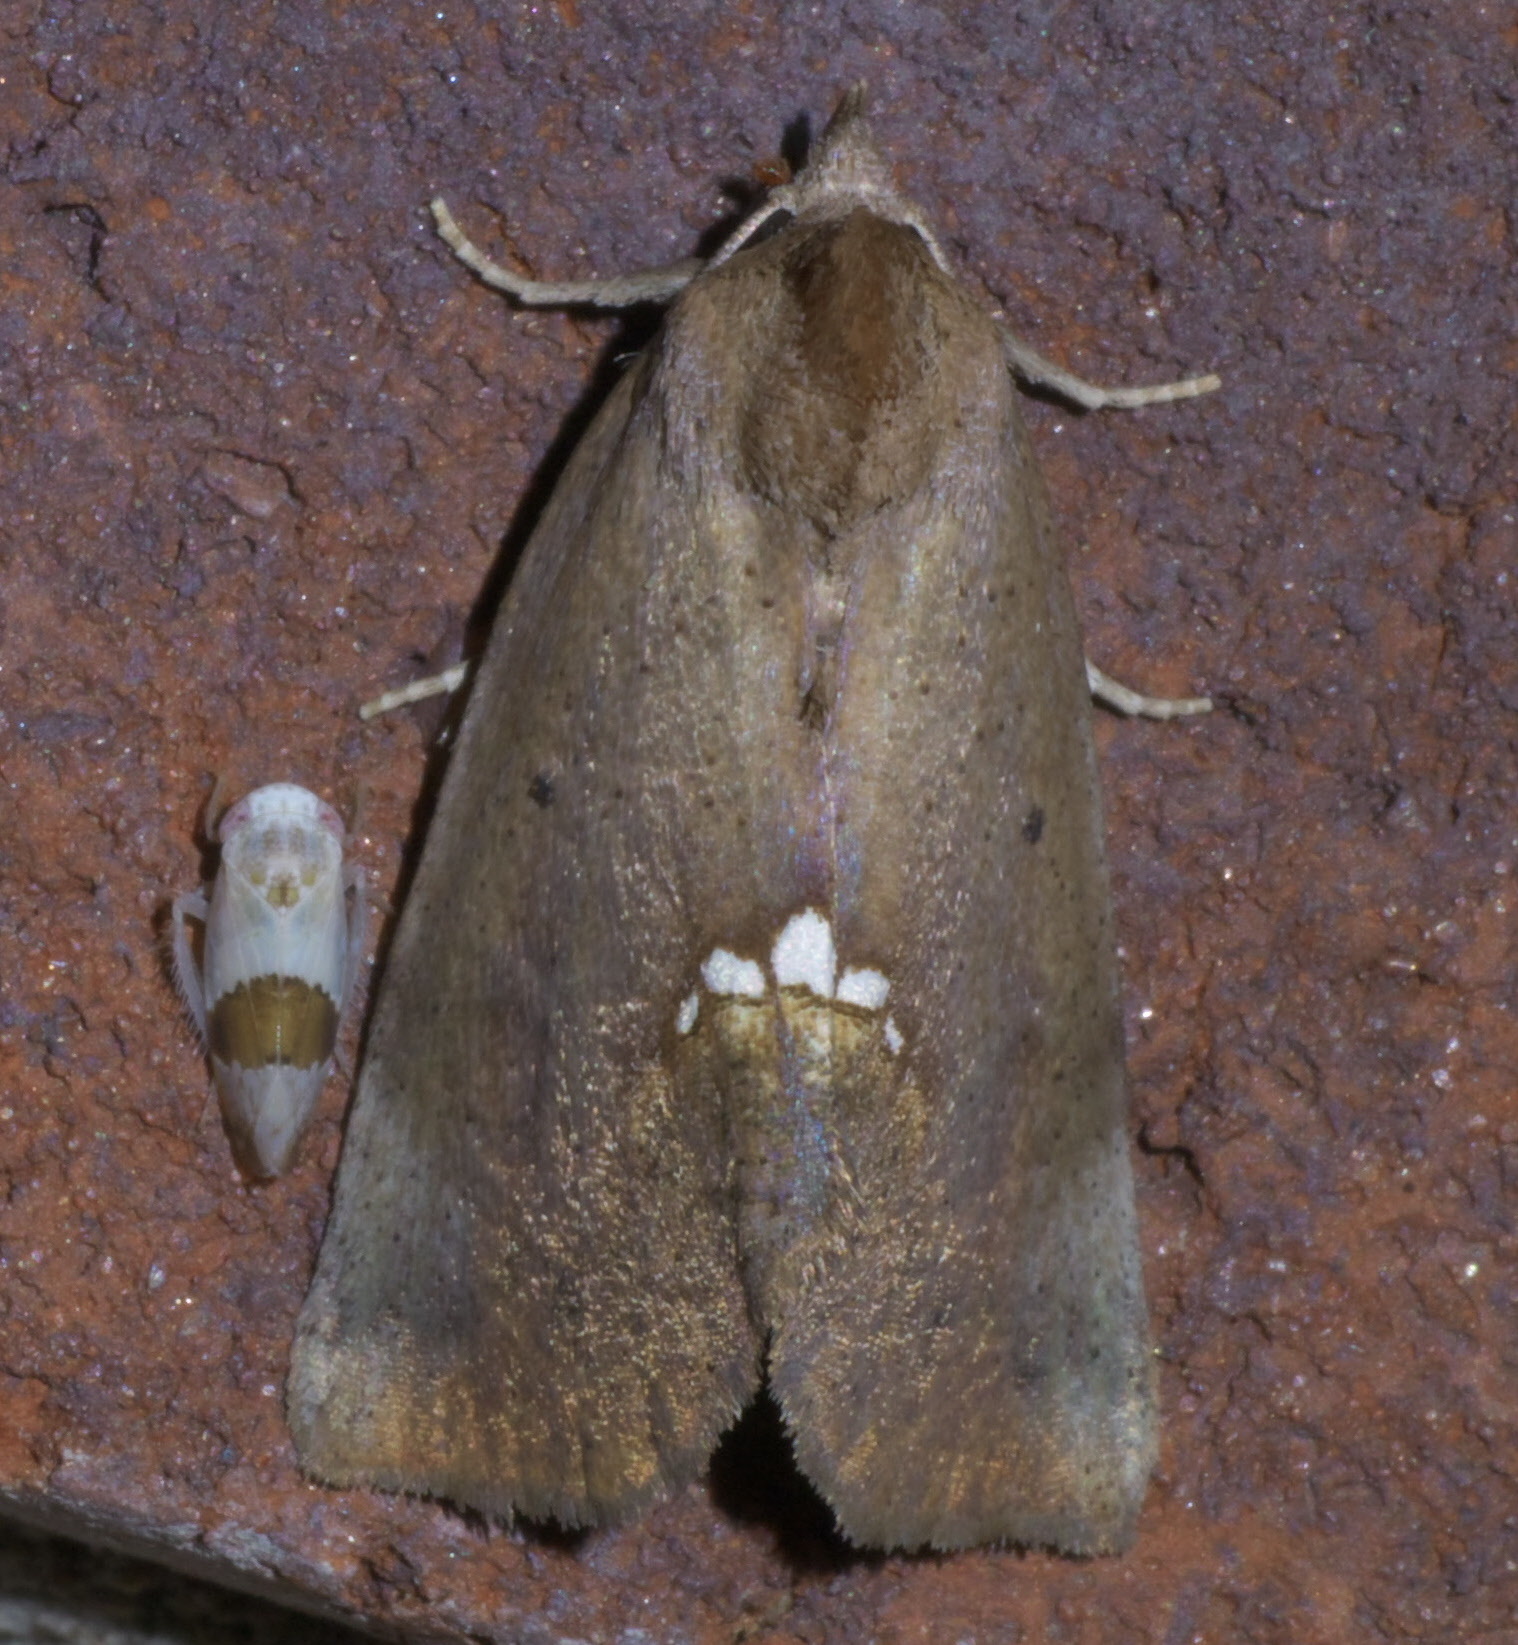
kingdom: Animalia
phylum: Arthropoda
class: Insecta
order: Lepidoptera
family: Erebidae
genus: Hypsoropha
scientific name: Hypsoropha hormos
